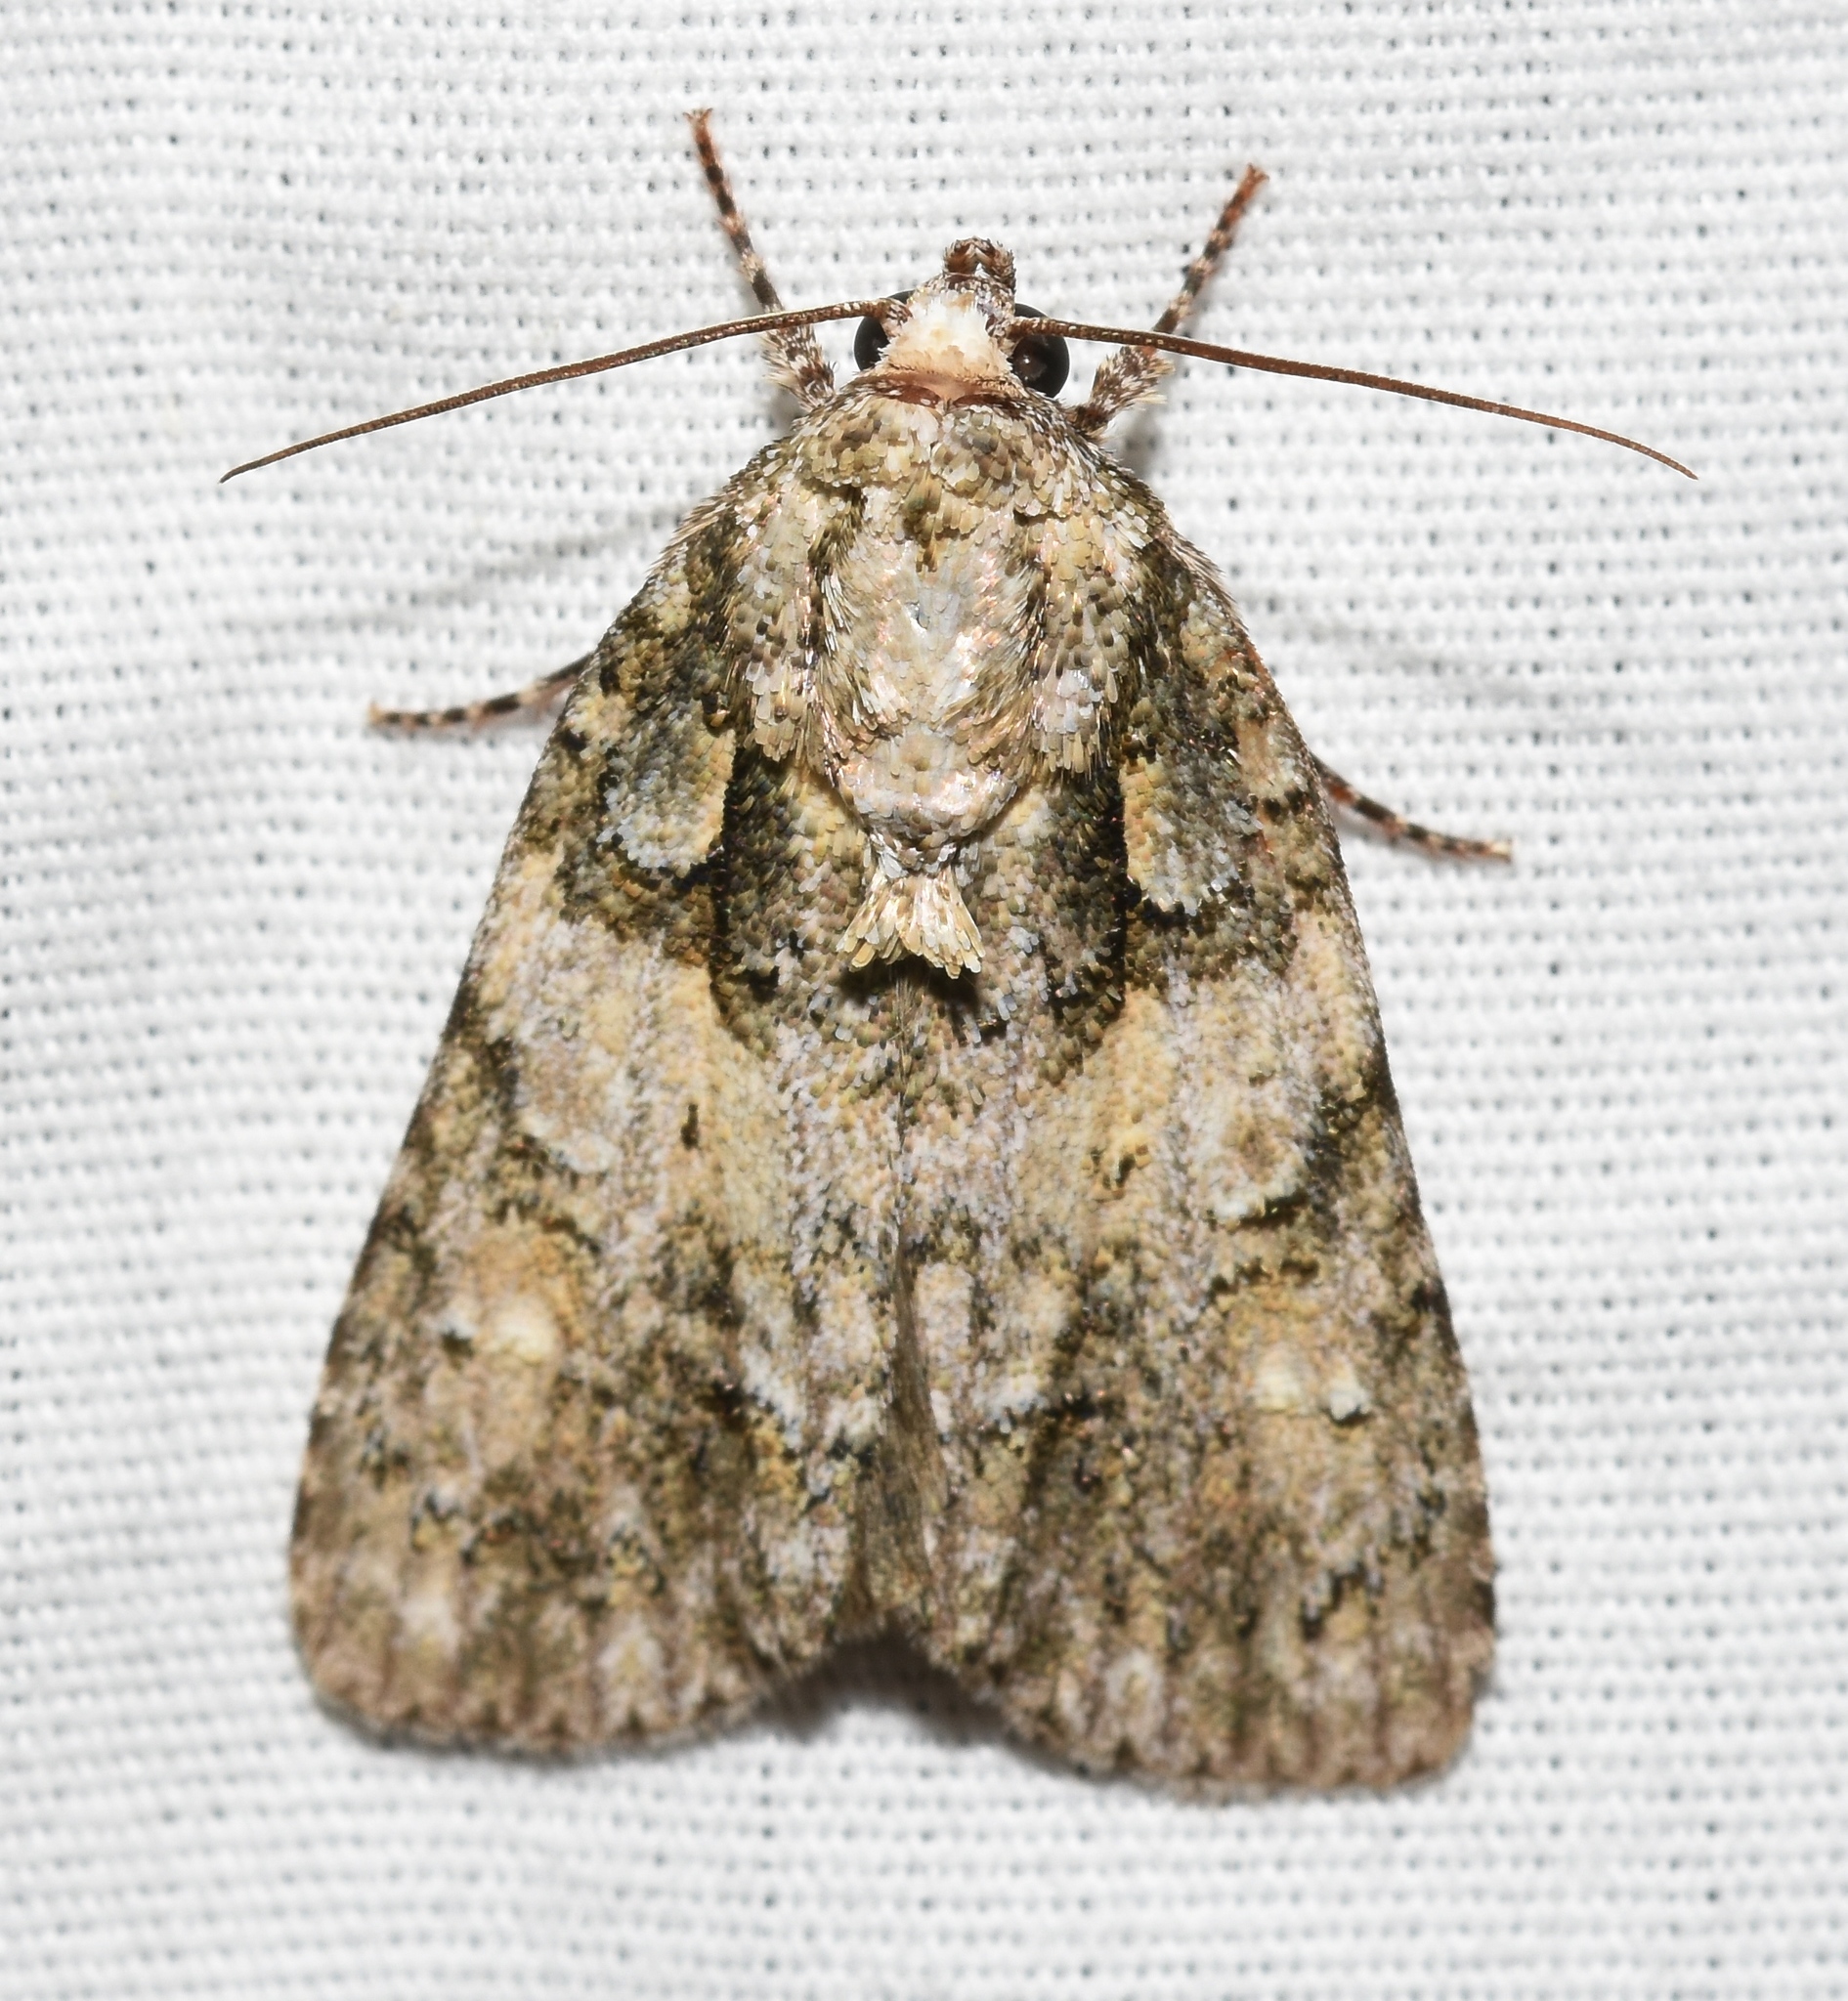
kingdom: Animalia
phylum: Arthropoda
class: Insecta
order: Lepidoptera
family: Noctuidae
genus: Acronicta
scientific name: Acronicta increta
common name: Eclipsed oak dagger
